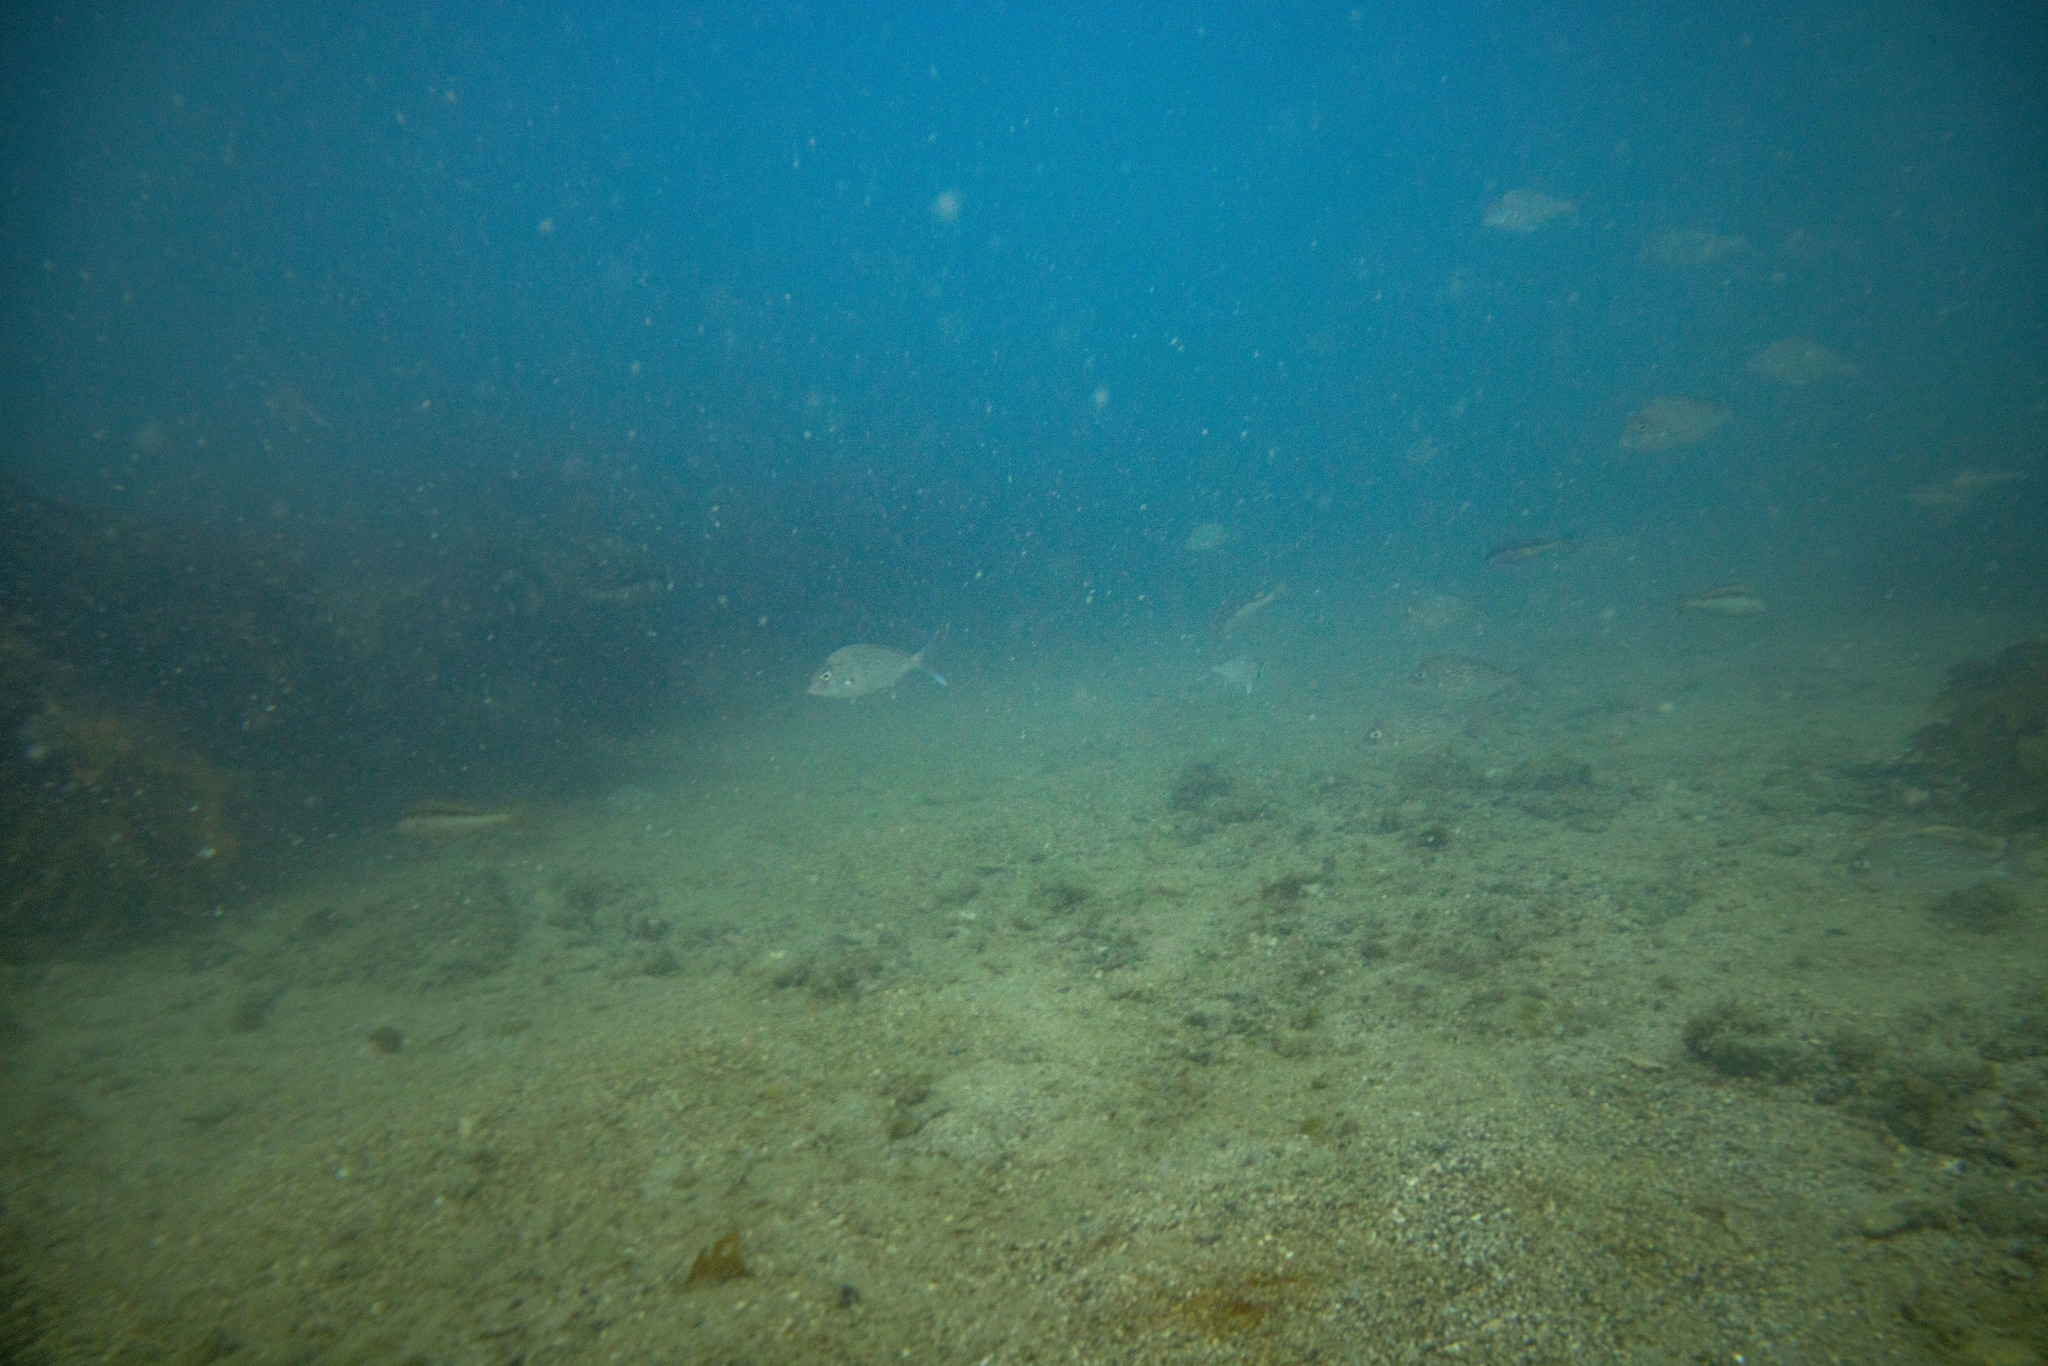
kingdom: Animalia
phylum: Chordata
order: Perciformes
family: Sparidae
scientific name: Sparidae
